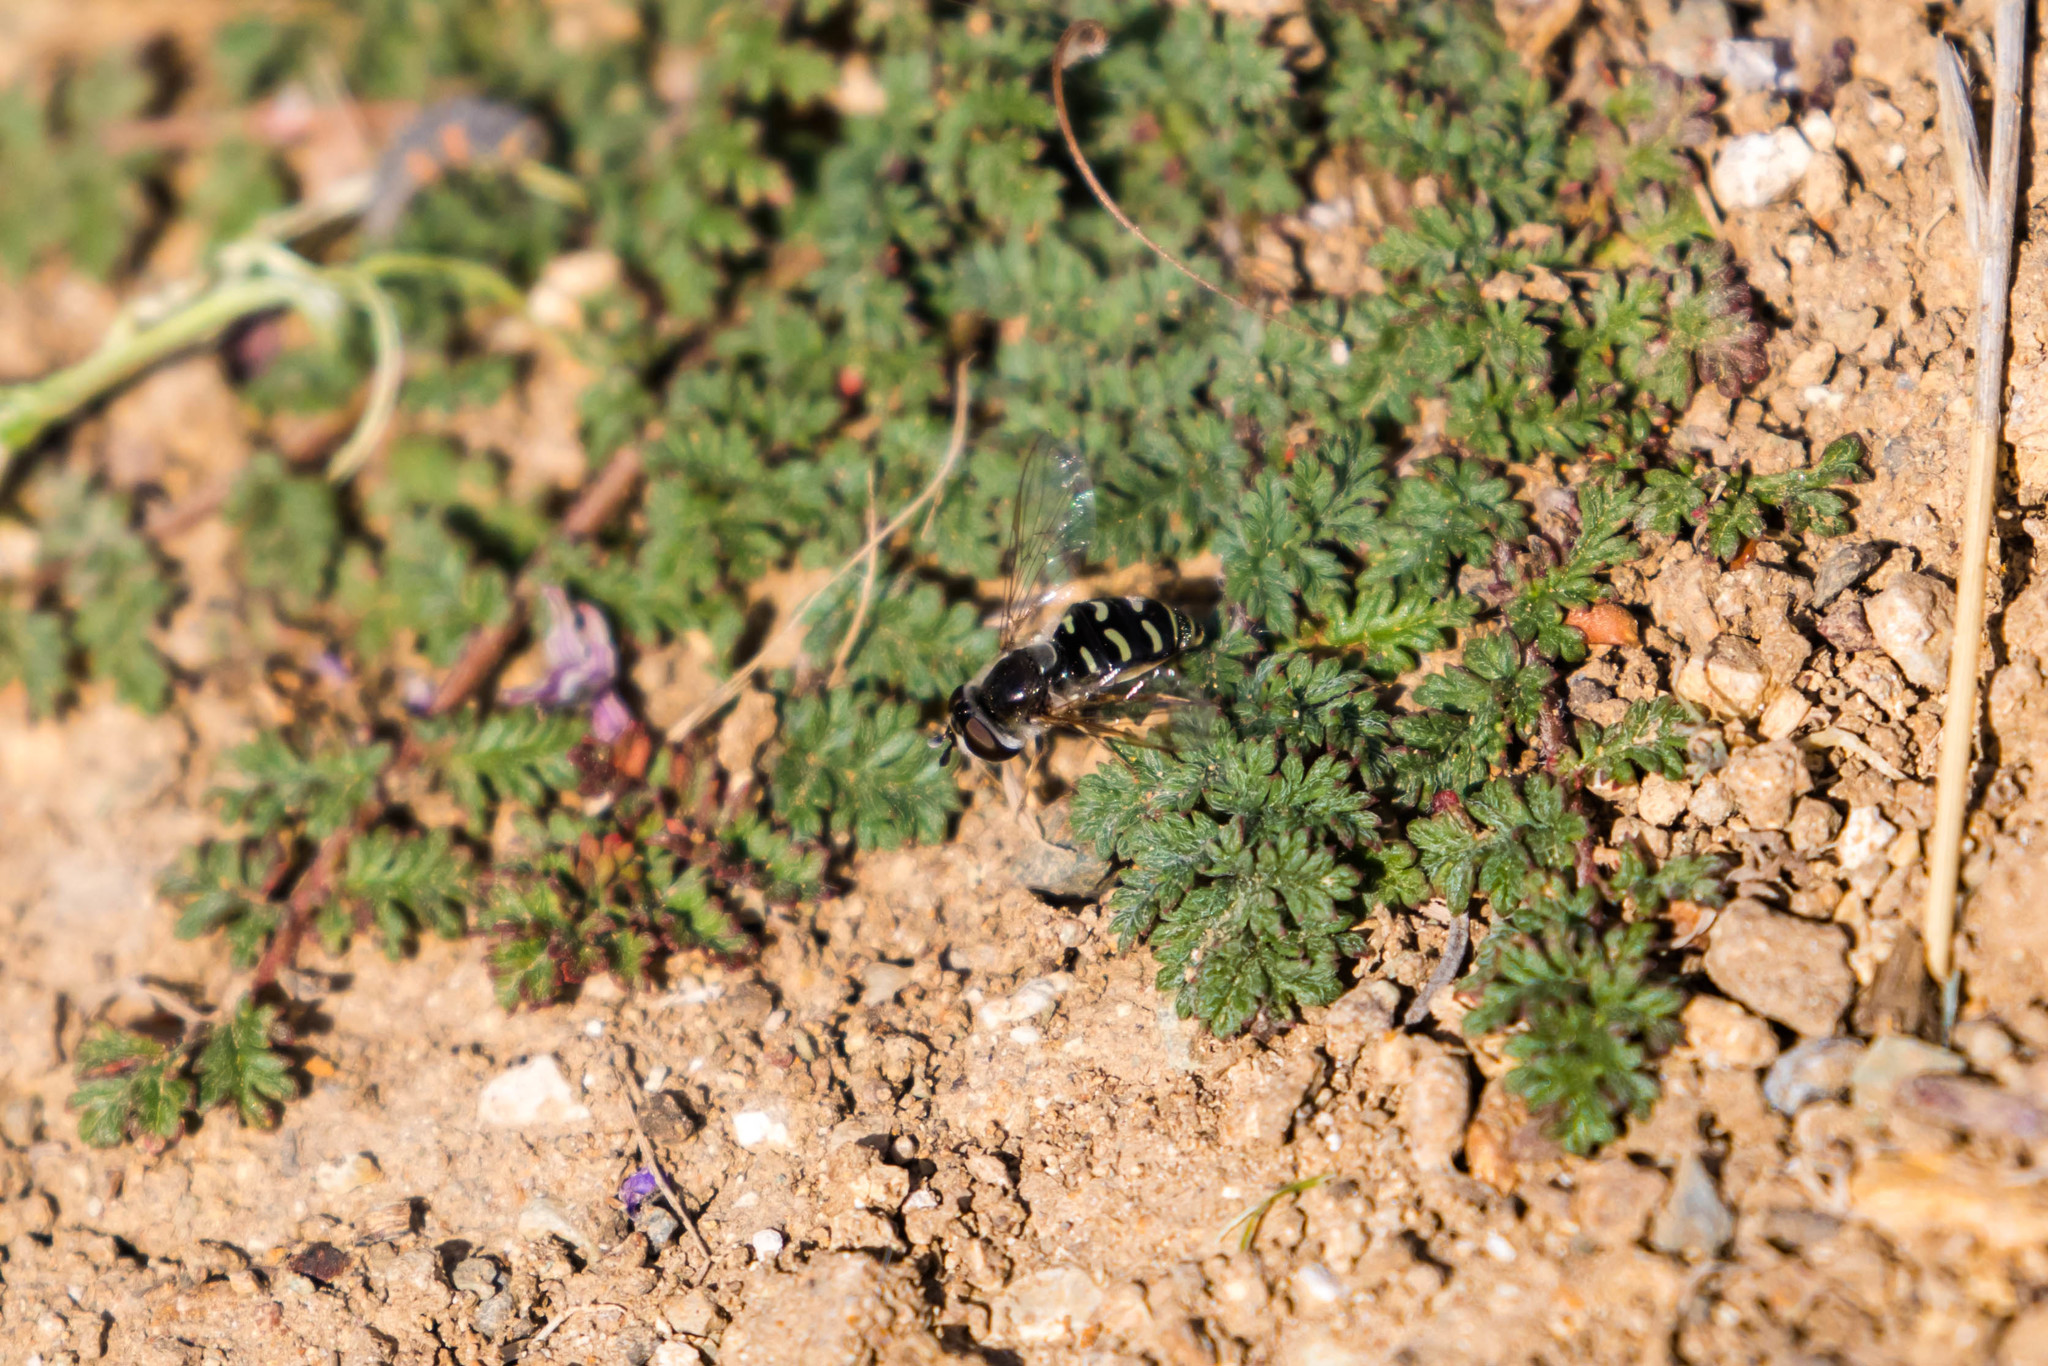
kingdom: Animalia
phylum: Arthropoda
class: Insecta
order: Diptera
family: Syrphidae
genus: Eupeodes
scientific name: Eupeodes volucris
